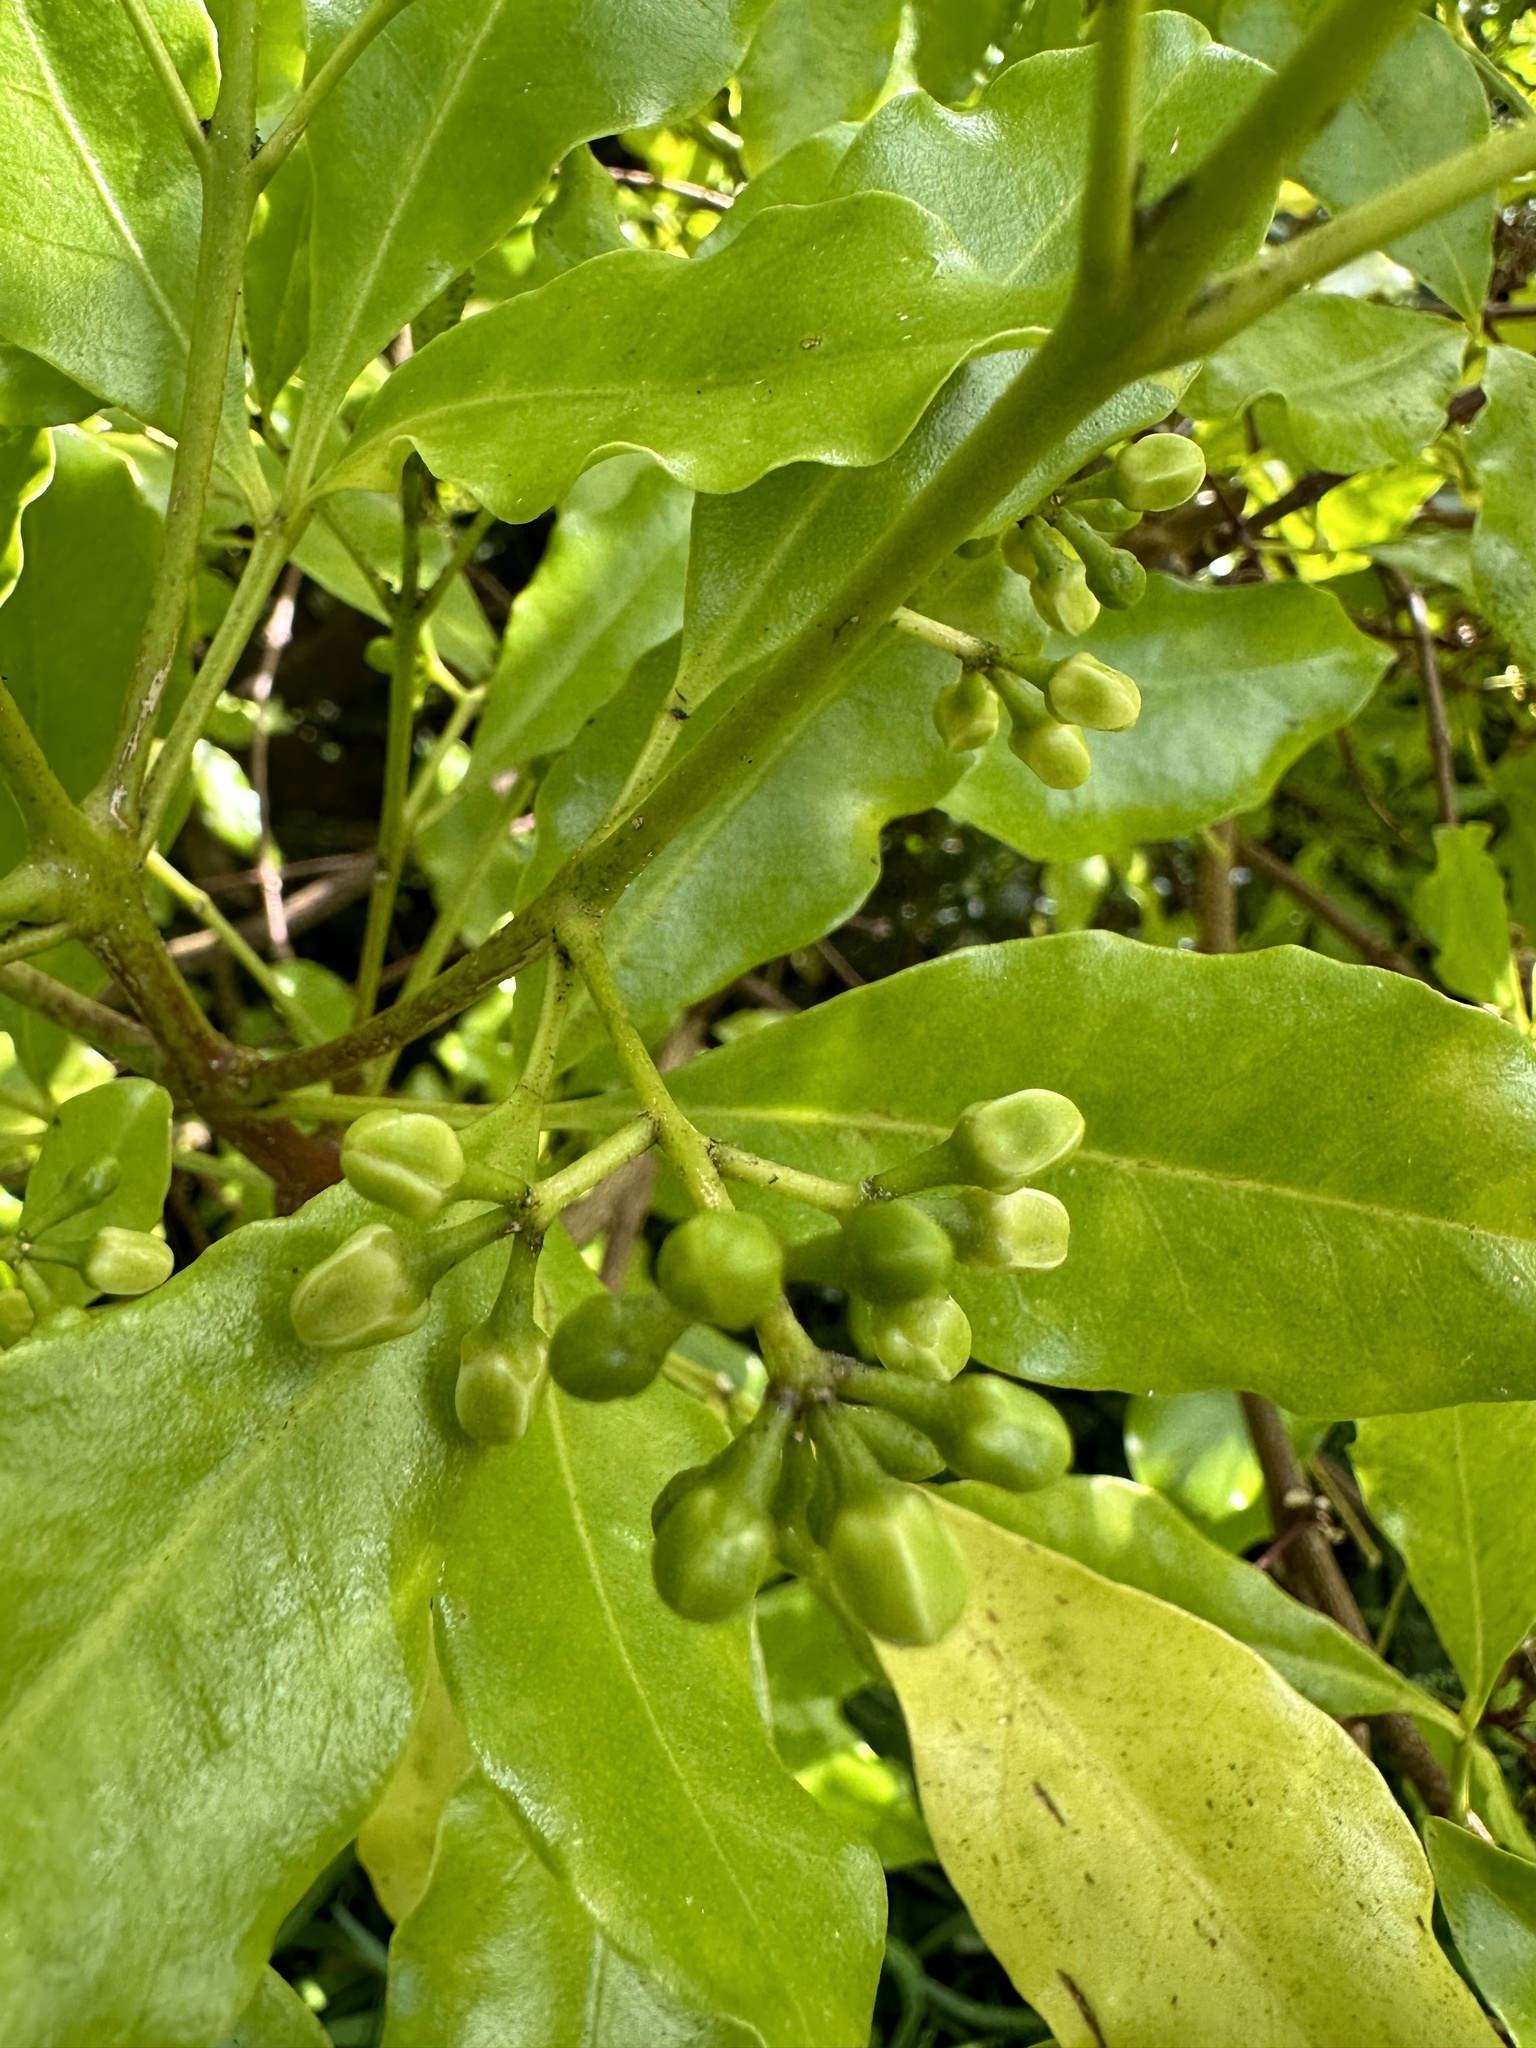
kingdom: Plantae
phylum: Tracheophyta
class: Magnoliopsida
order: Sapindales
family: Rutaceae
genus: Melicope
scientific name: Melicope ternata
